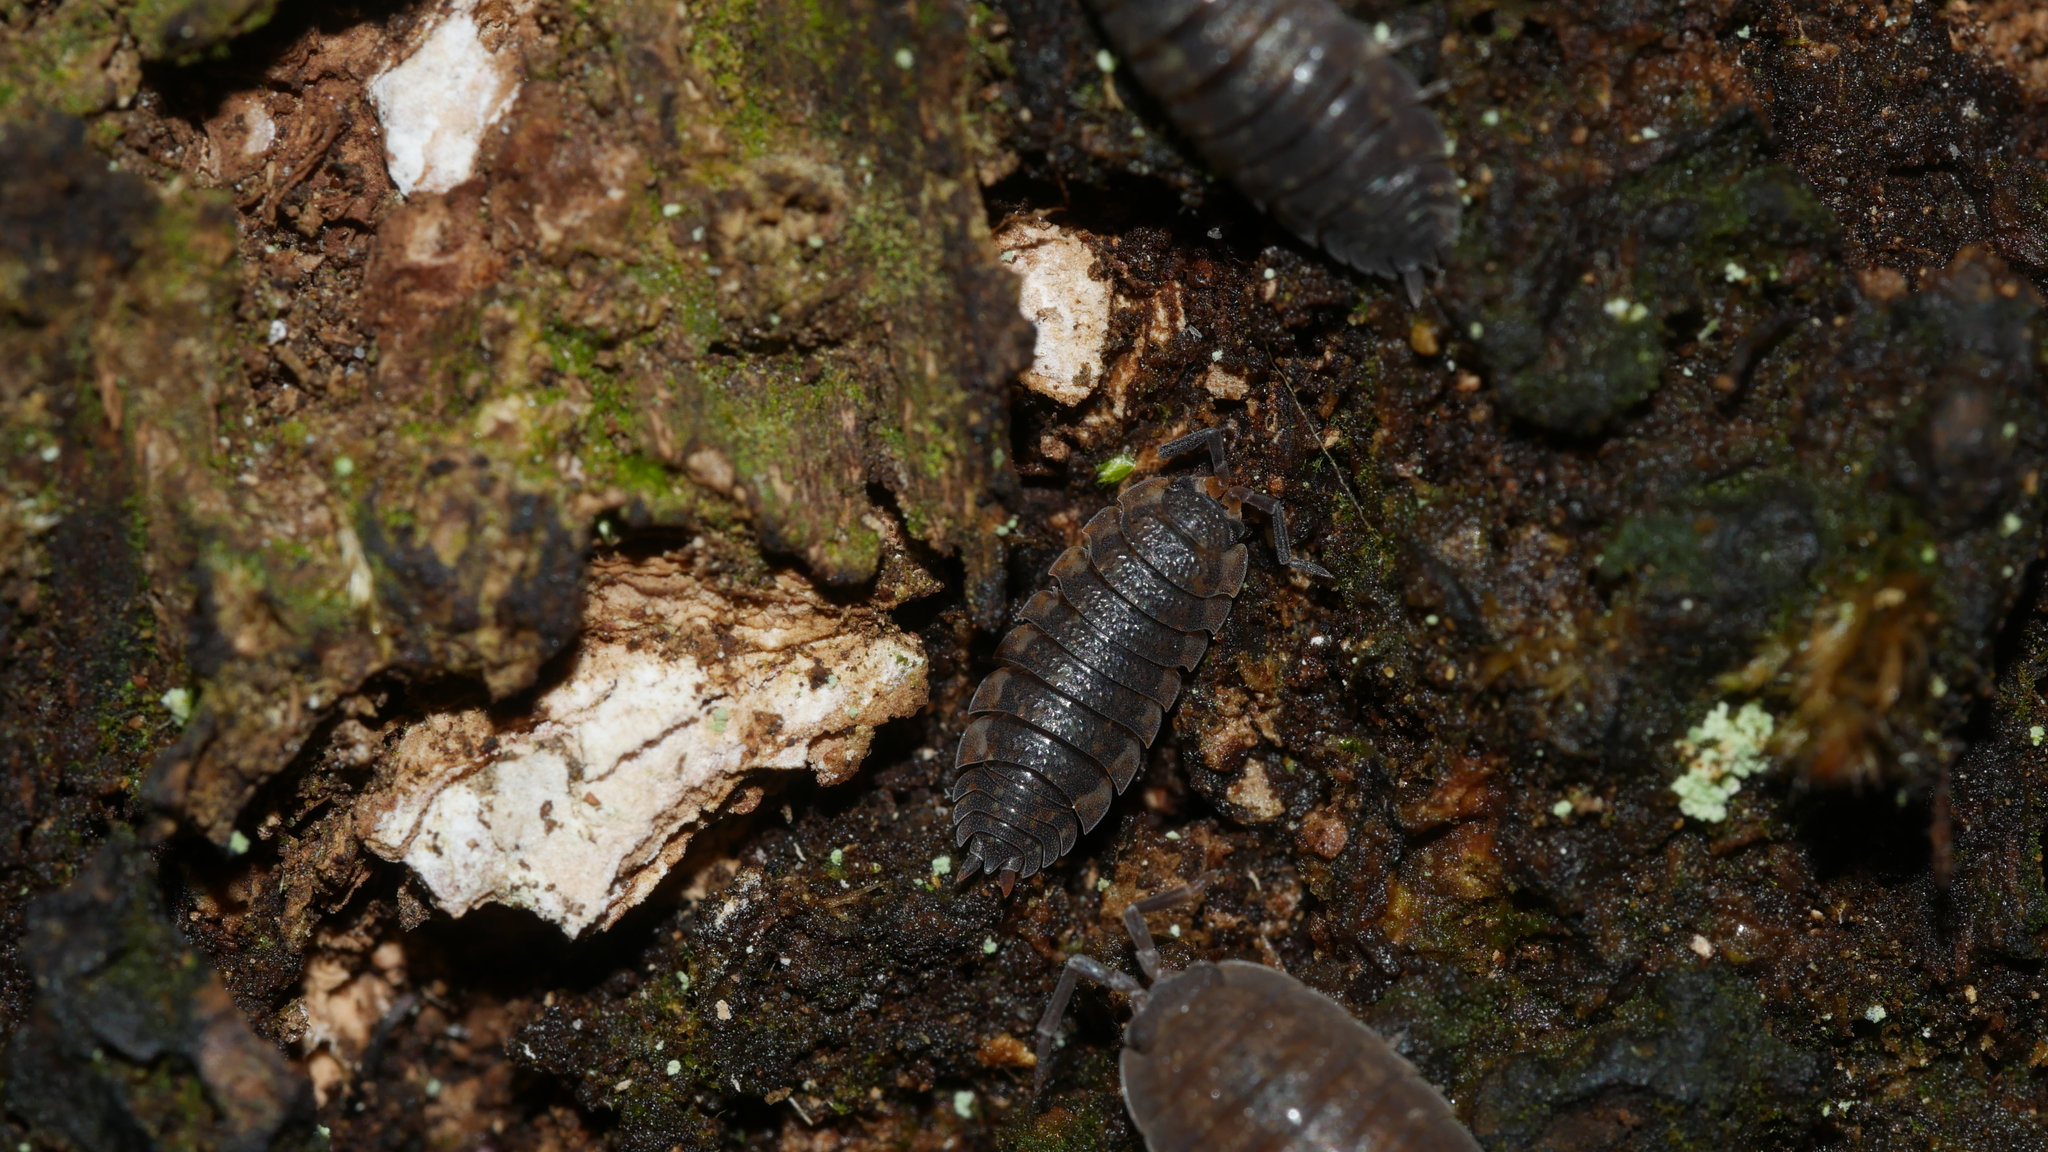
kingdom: Animalia
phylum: Arthropoda
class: Malacostraca
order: Isopoda
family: Porcellionidae
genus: Porcellio
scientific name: Porcellio scaber
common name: Common rough woodlouse
